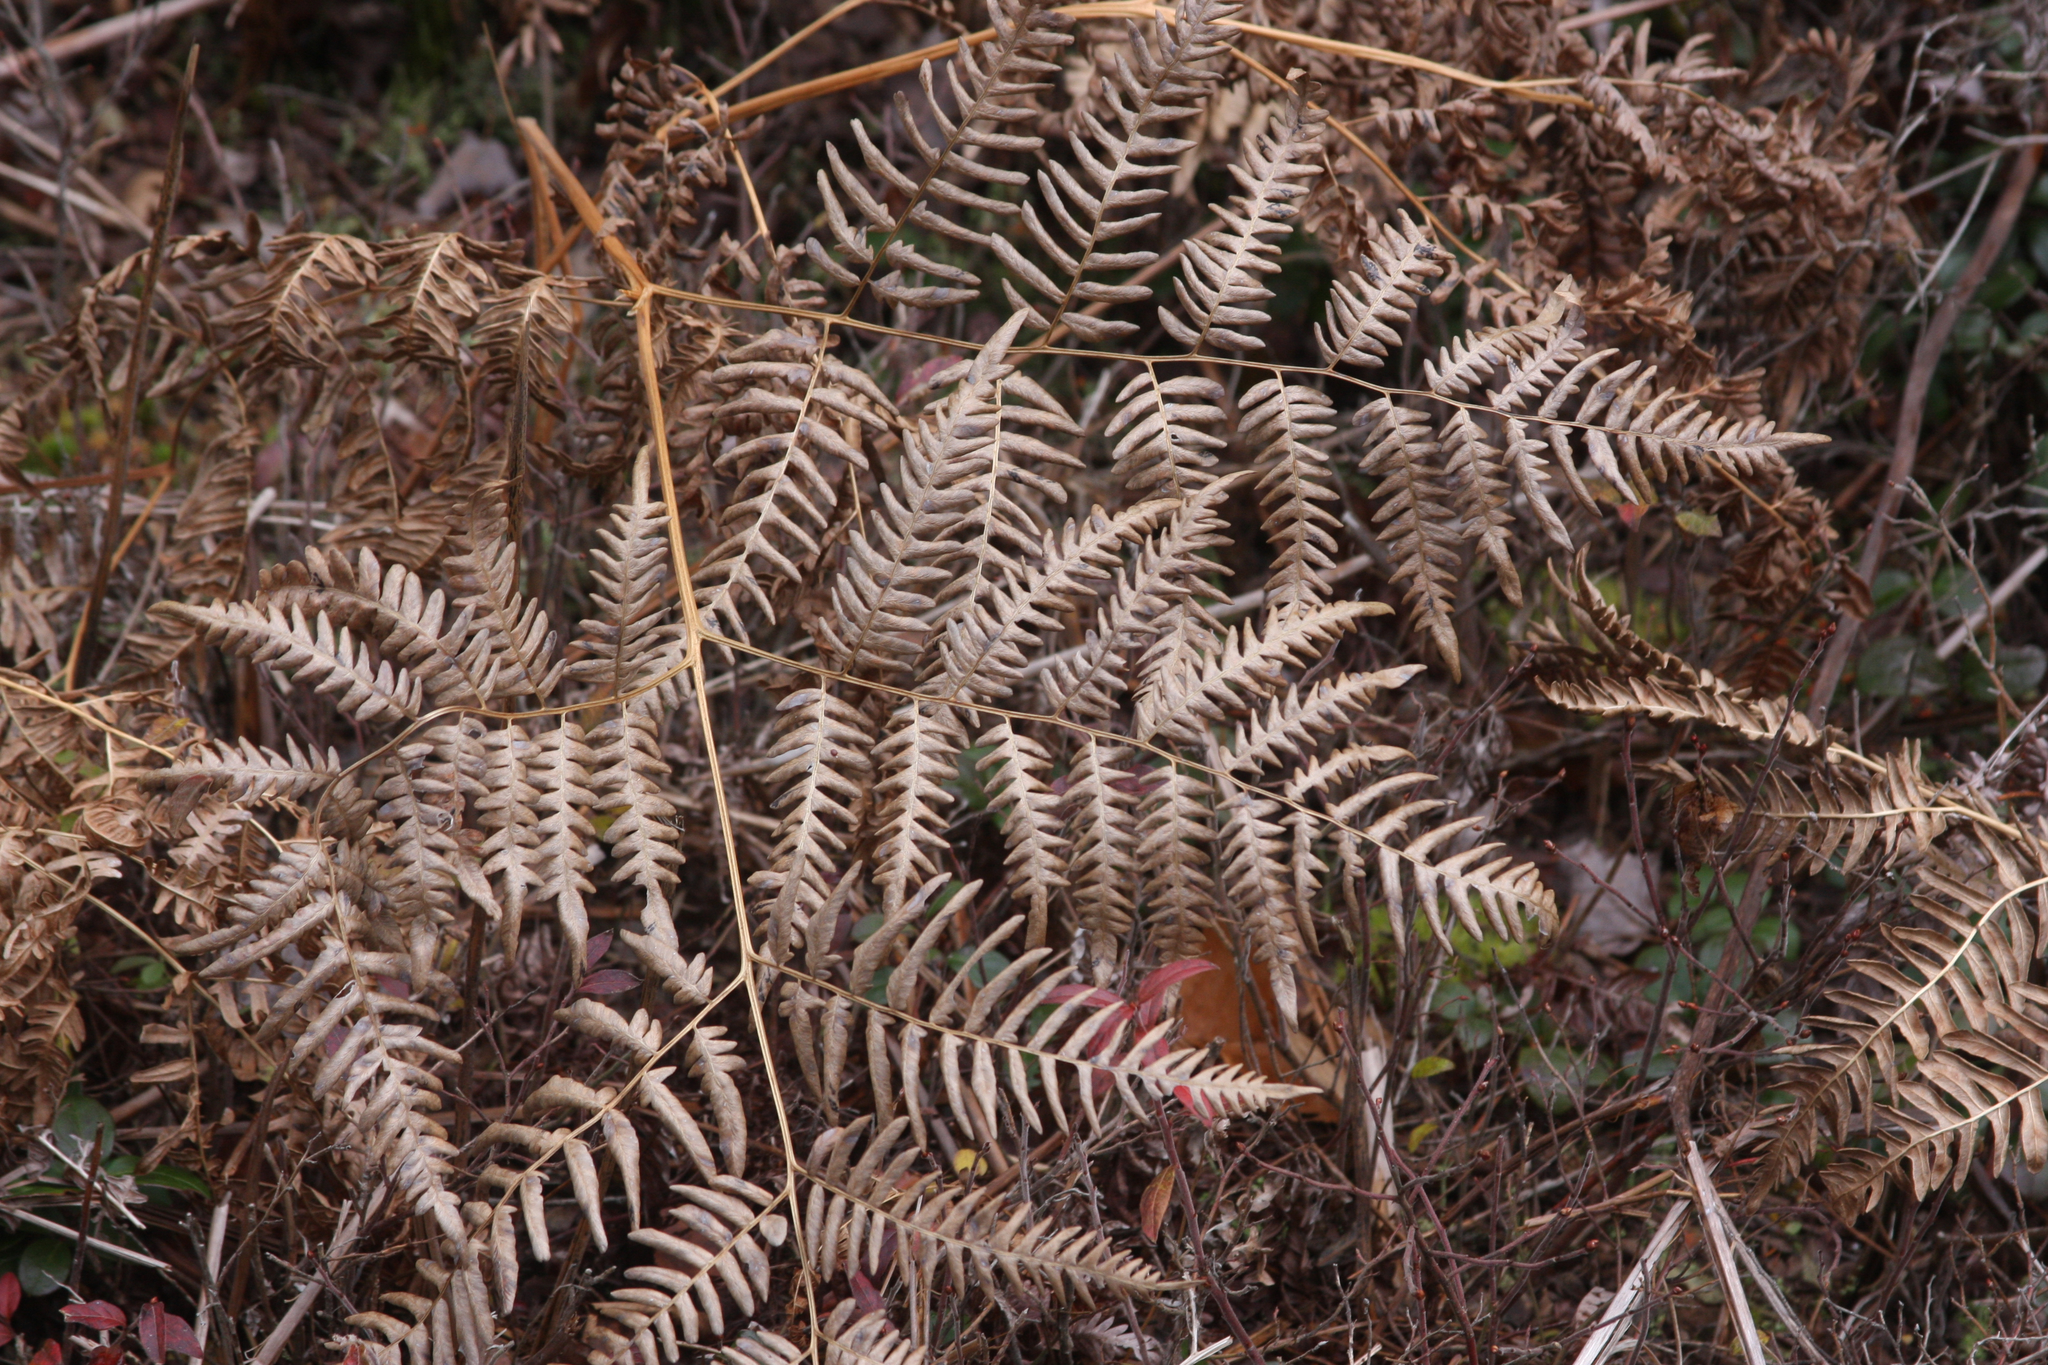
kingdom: Plantae
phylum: Tracheophyta
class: Polypodiopsida
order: Polypodiales
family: Dennstaedtiaceae
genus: Pteridium
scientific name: Pteridium aquilinum
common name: Bracken
